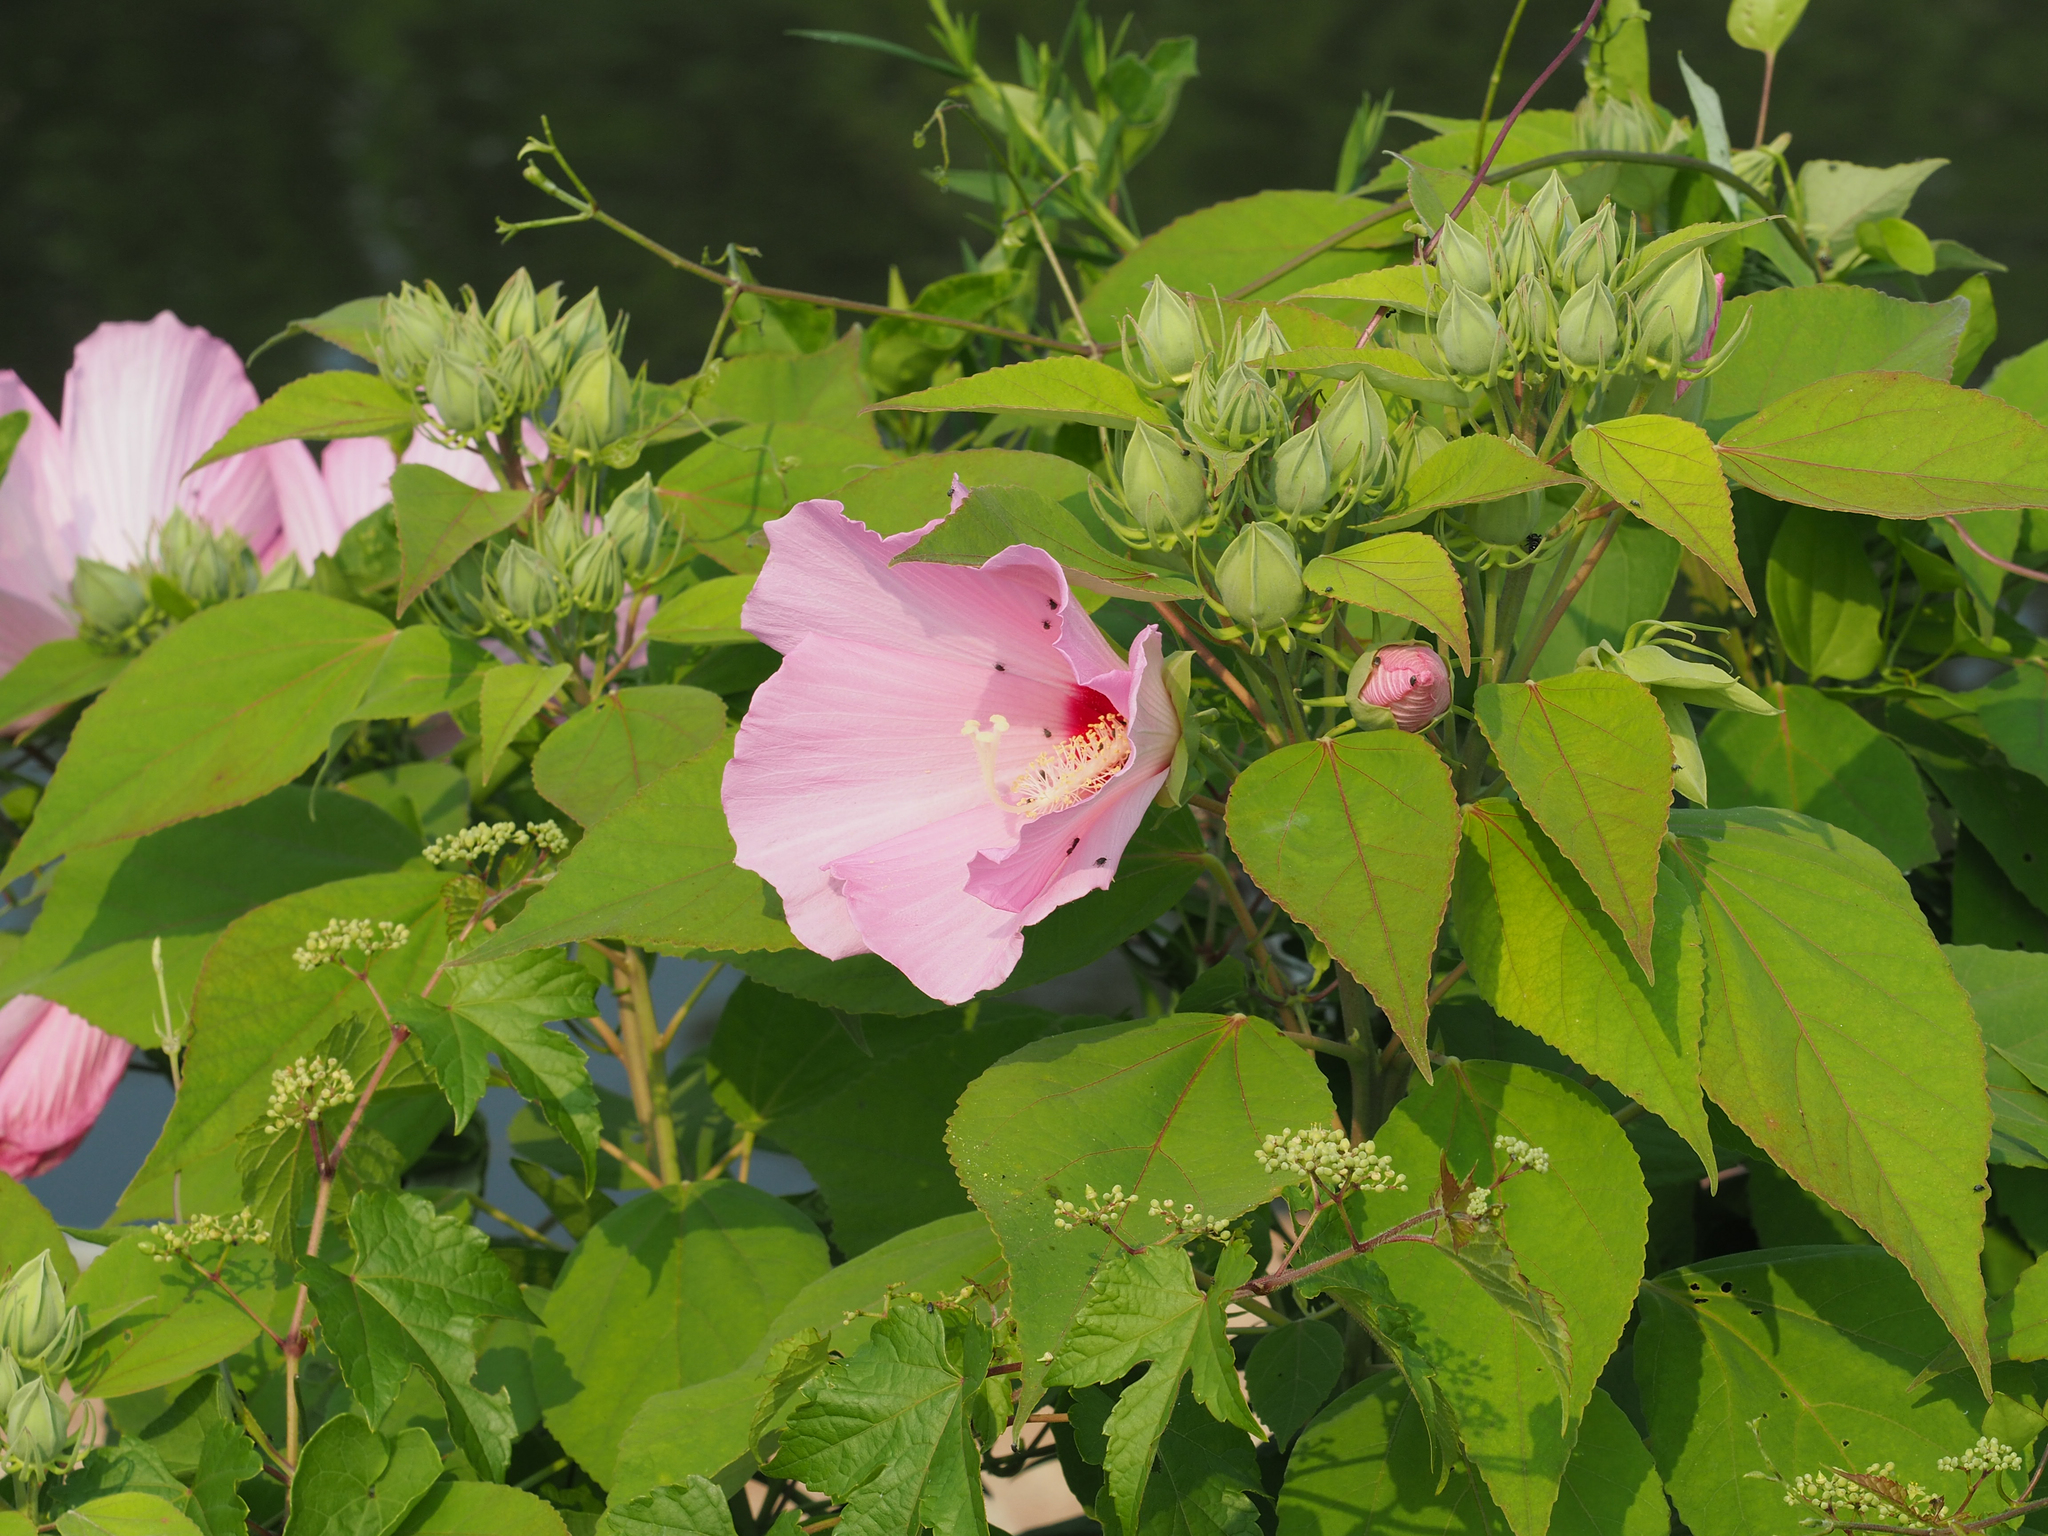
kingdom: Plantae
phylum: Tracheophyta
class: Magnoliopsida
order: Malvales
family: Malvaceae
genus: Hibiscus
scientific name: Hibiscus moscheutos
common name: Common rose-mallow
